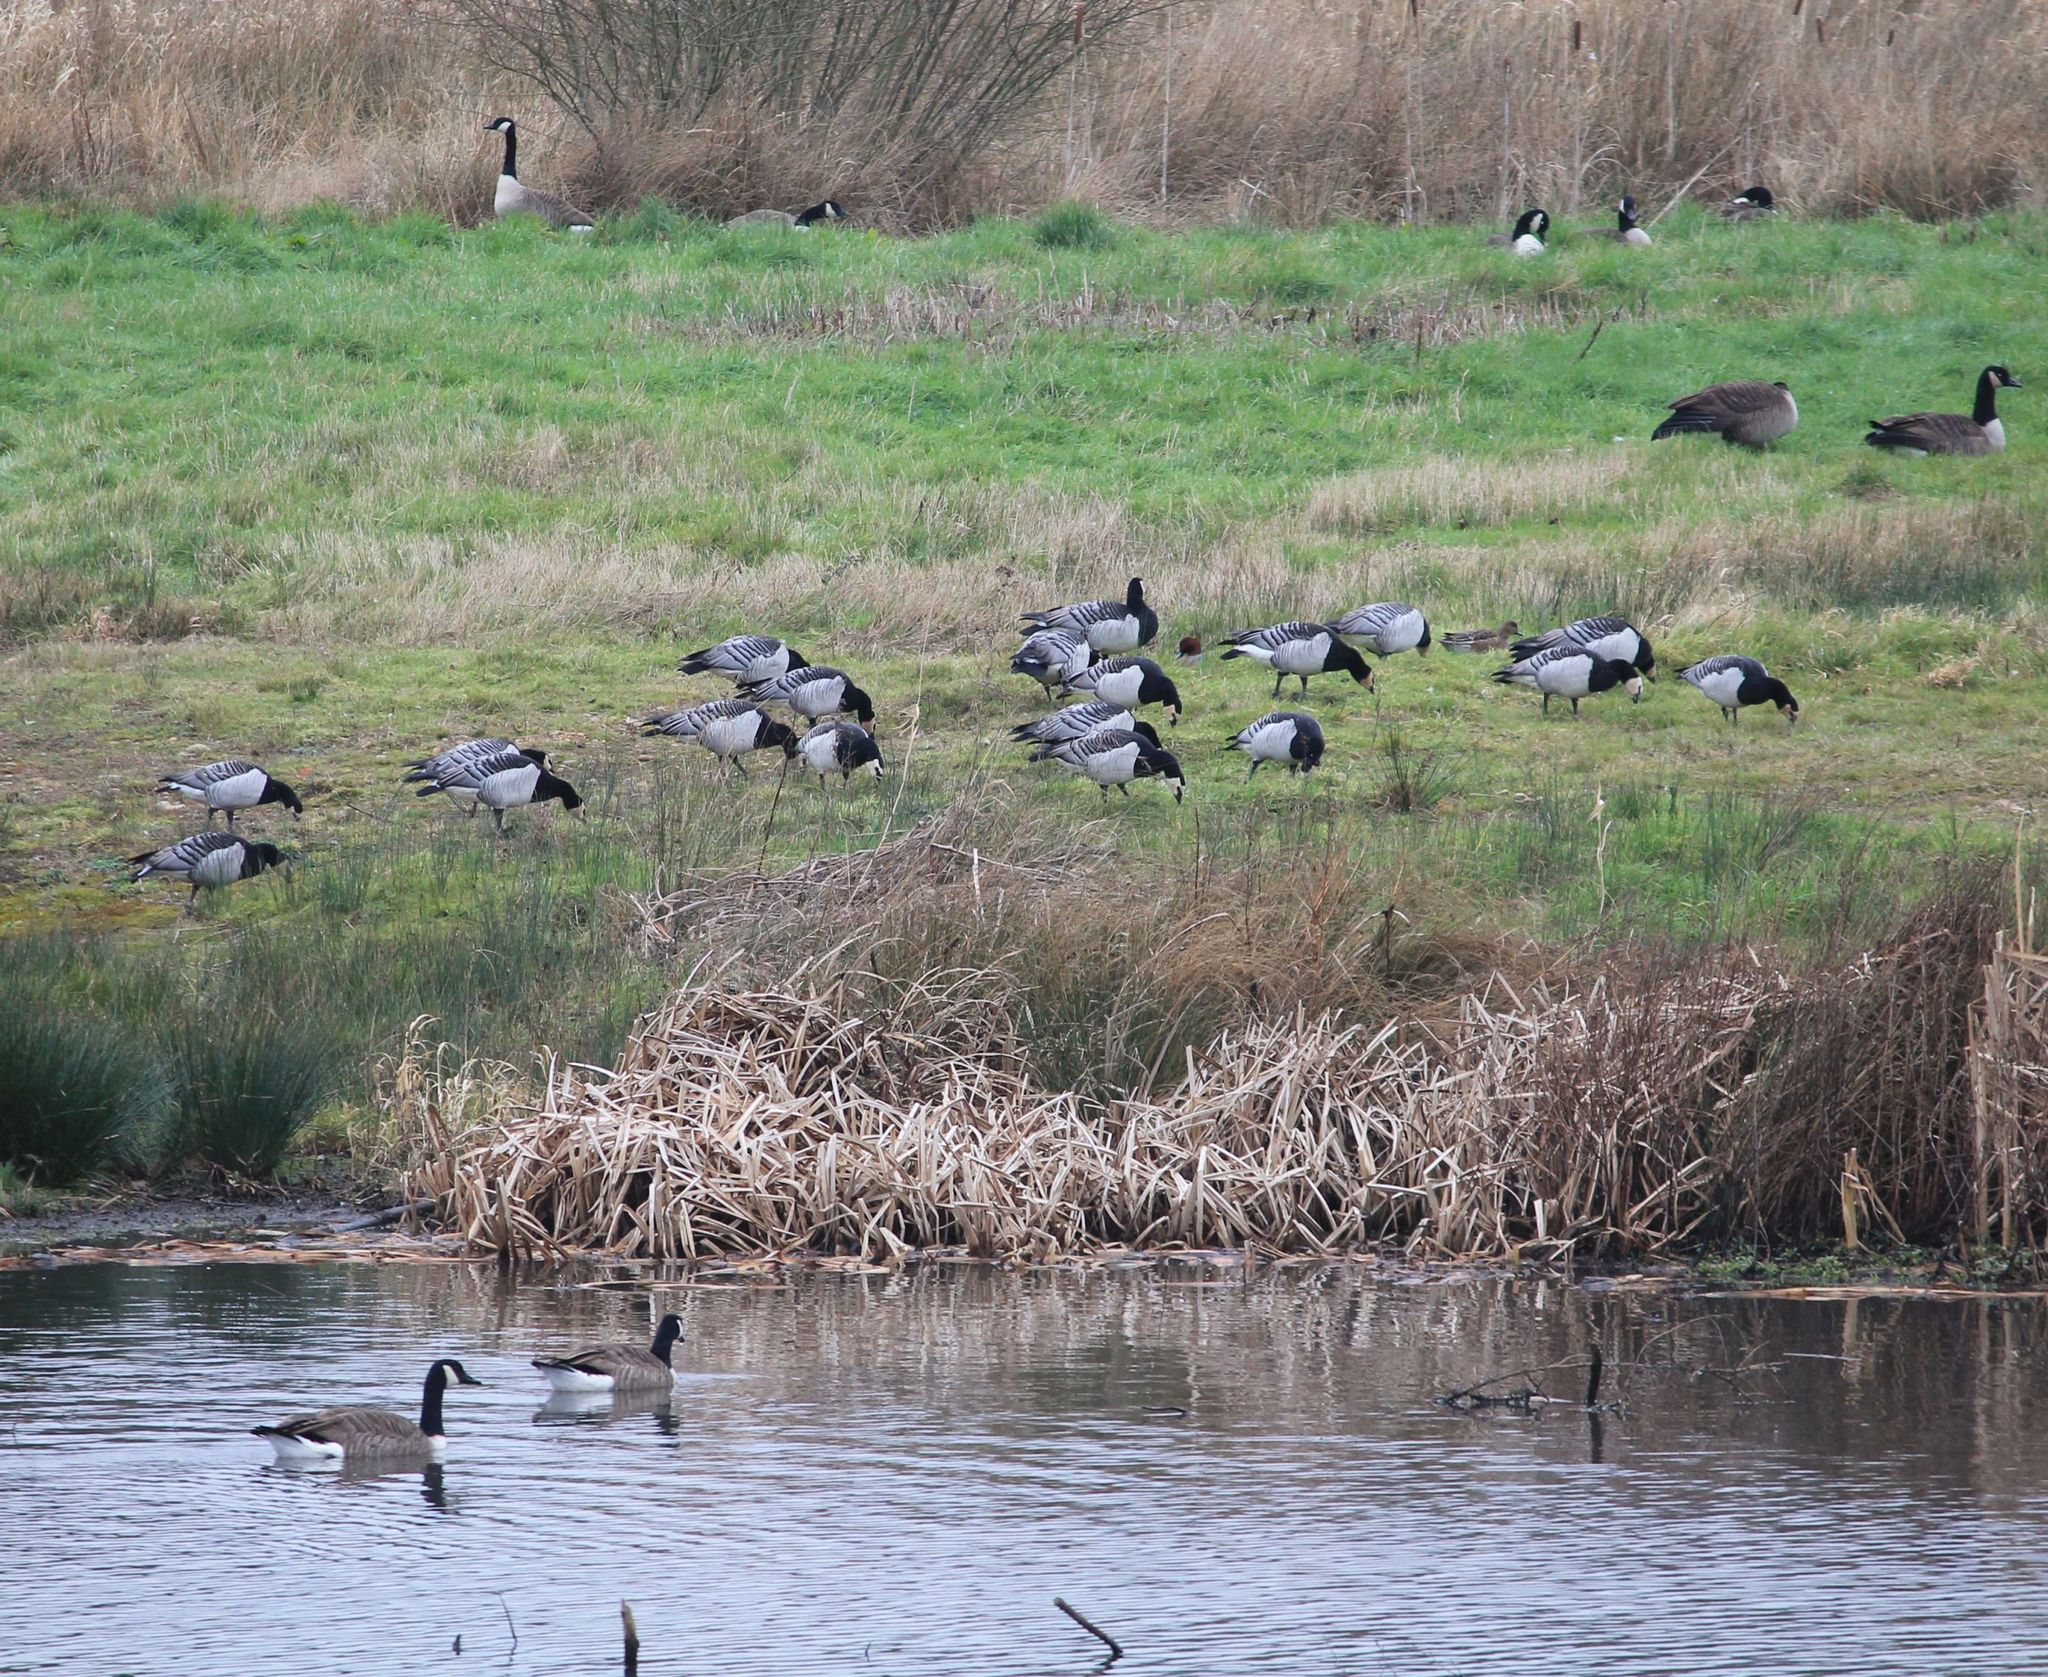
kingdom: Animalia
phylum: Chordata
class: Aves
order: Anseriformes
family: Anatidae
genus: Branta
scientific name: Branta leucopsis
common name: Barnacle goose
